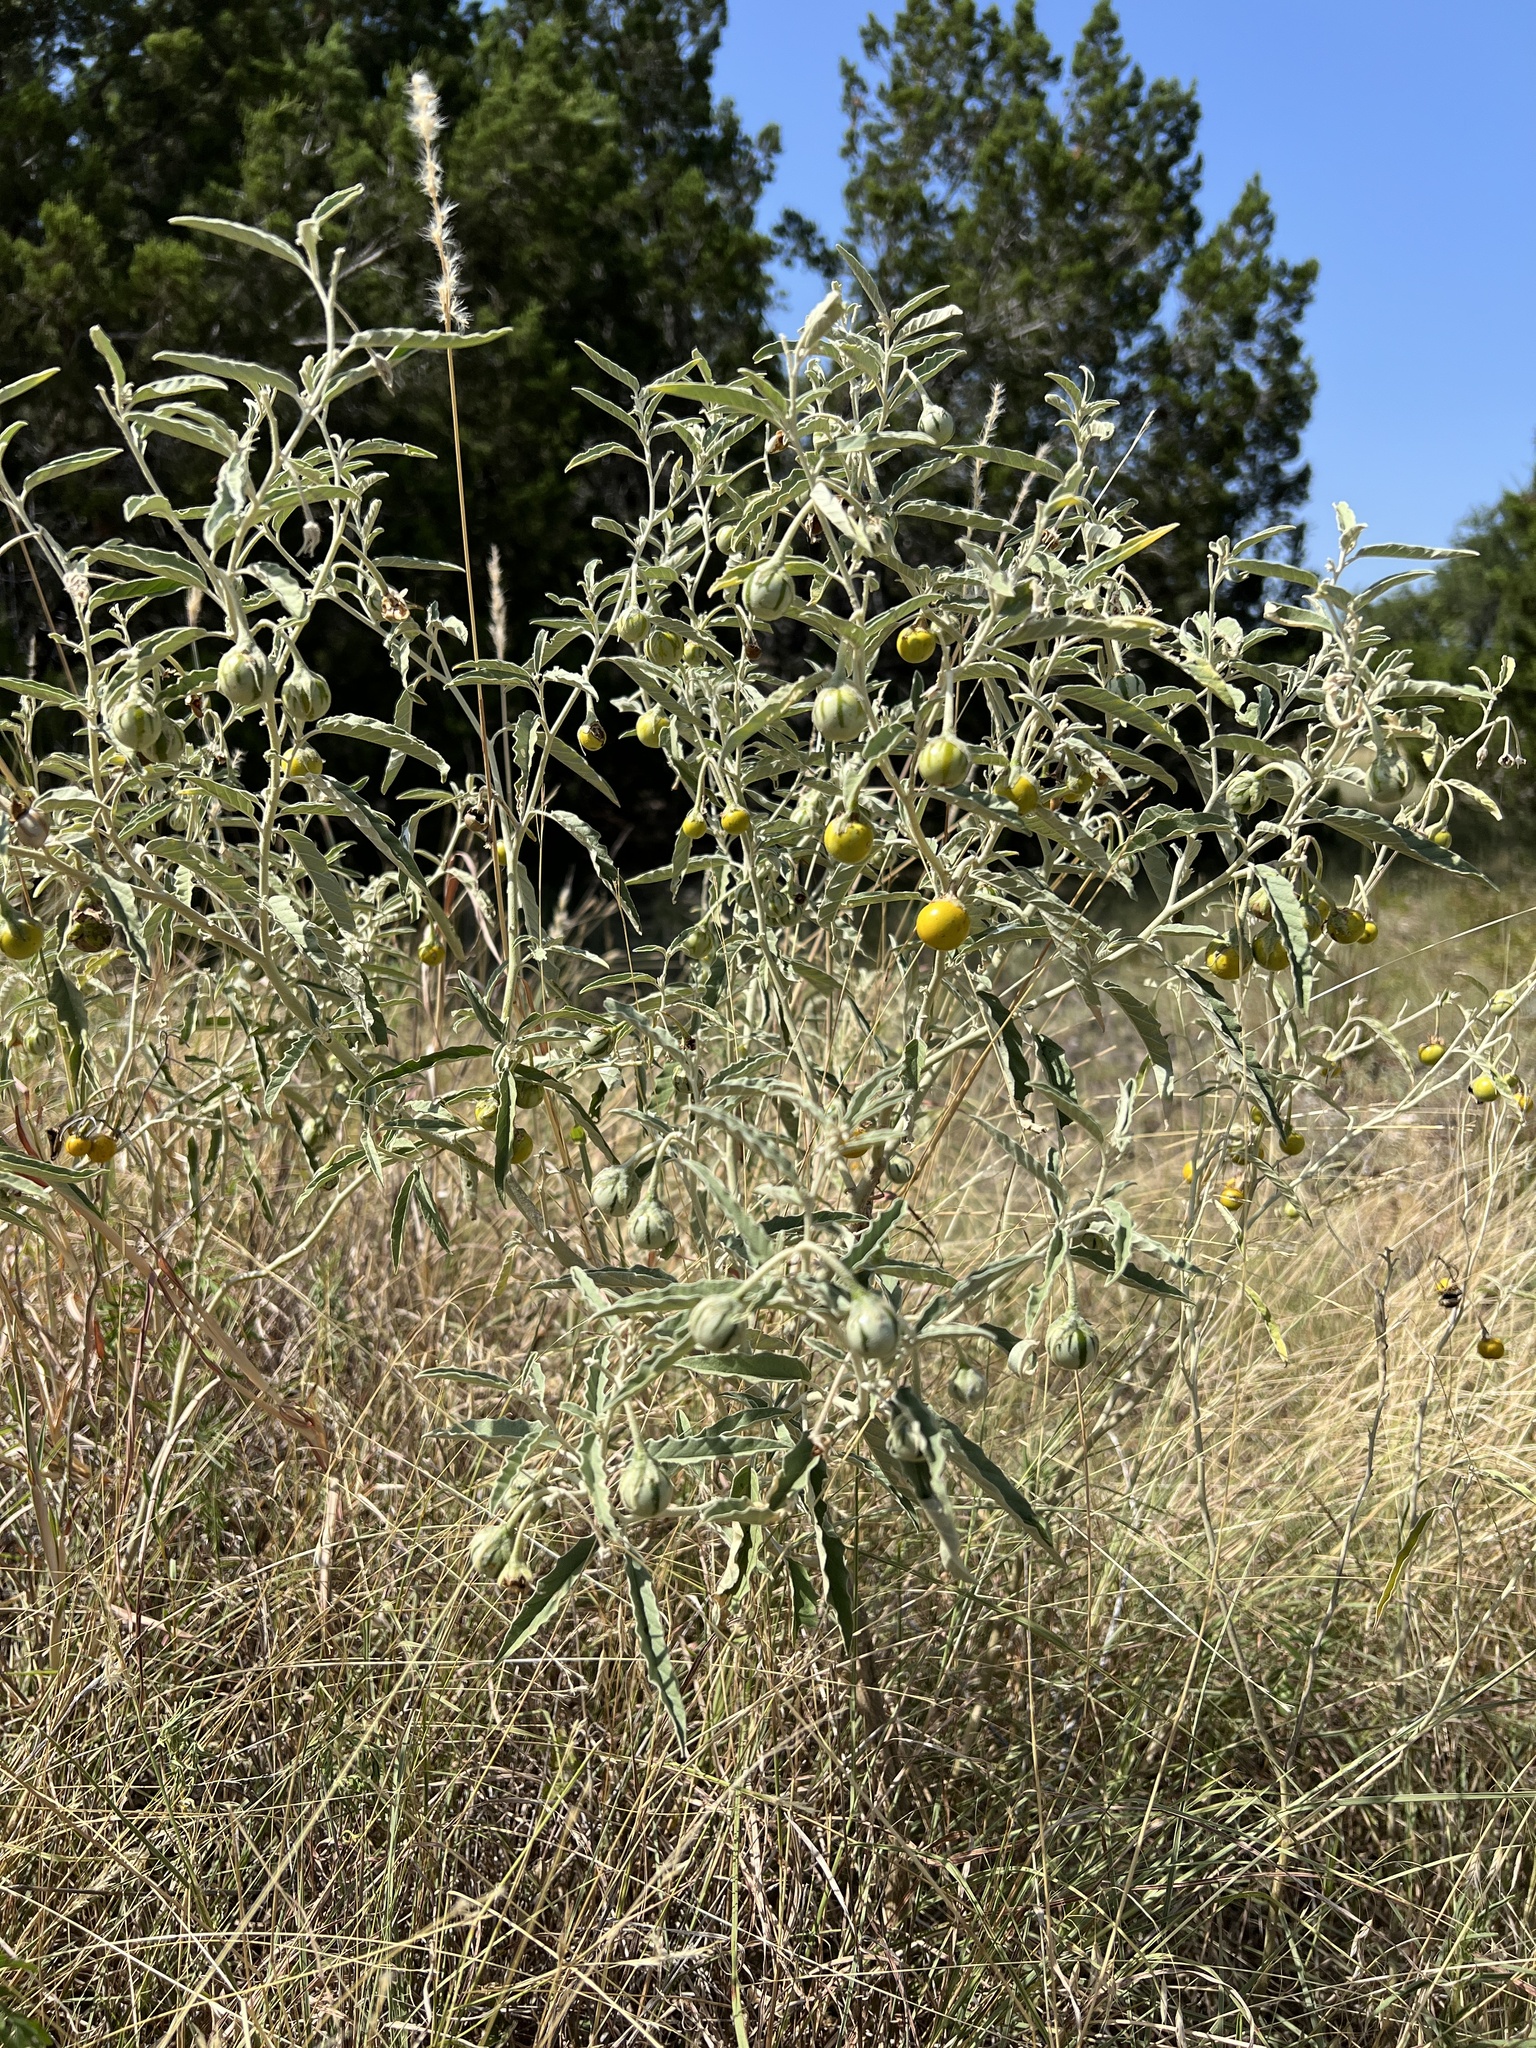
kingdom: Plantae
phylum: Tracheophyta
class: Magnoliopsida
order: Solanales
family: Solanaceae
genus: Solanum
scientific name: Solanum elaeagnifolium
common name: Silverleaf nightshade
